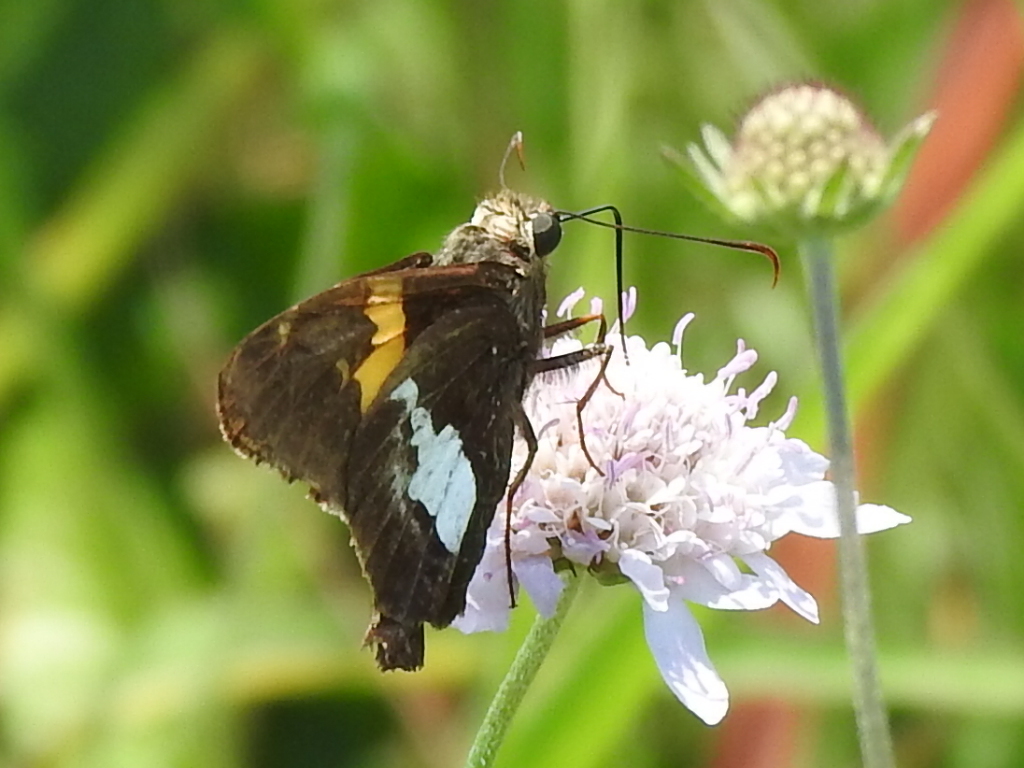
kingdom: Animalia
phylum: Arthropoda
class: Insecta
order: Lepidoptera
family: Hesperiidae
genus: Epargyreus
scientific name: Epargyreus clarus
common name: Silver-spotted skipper
